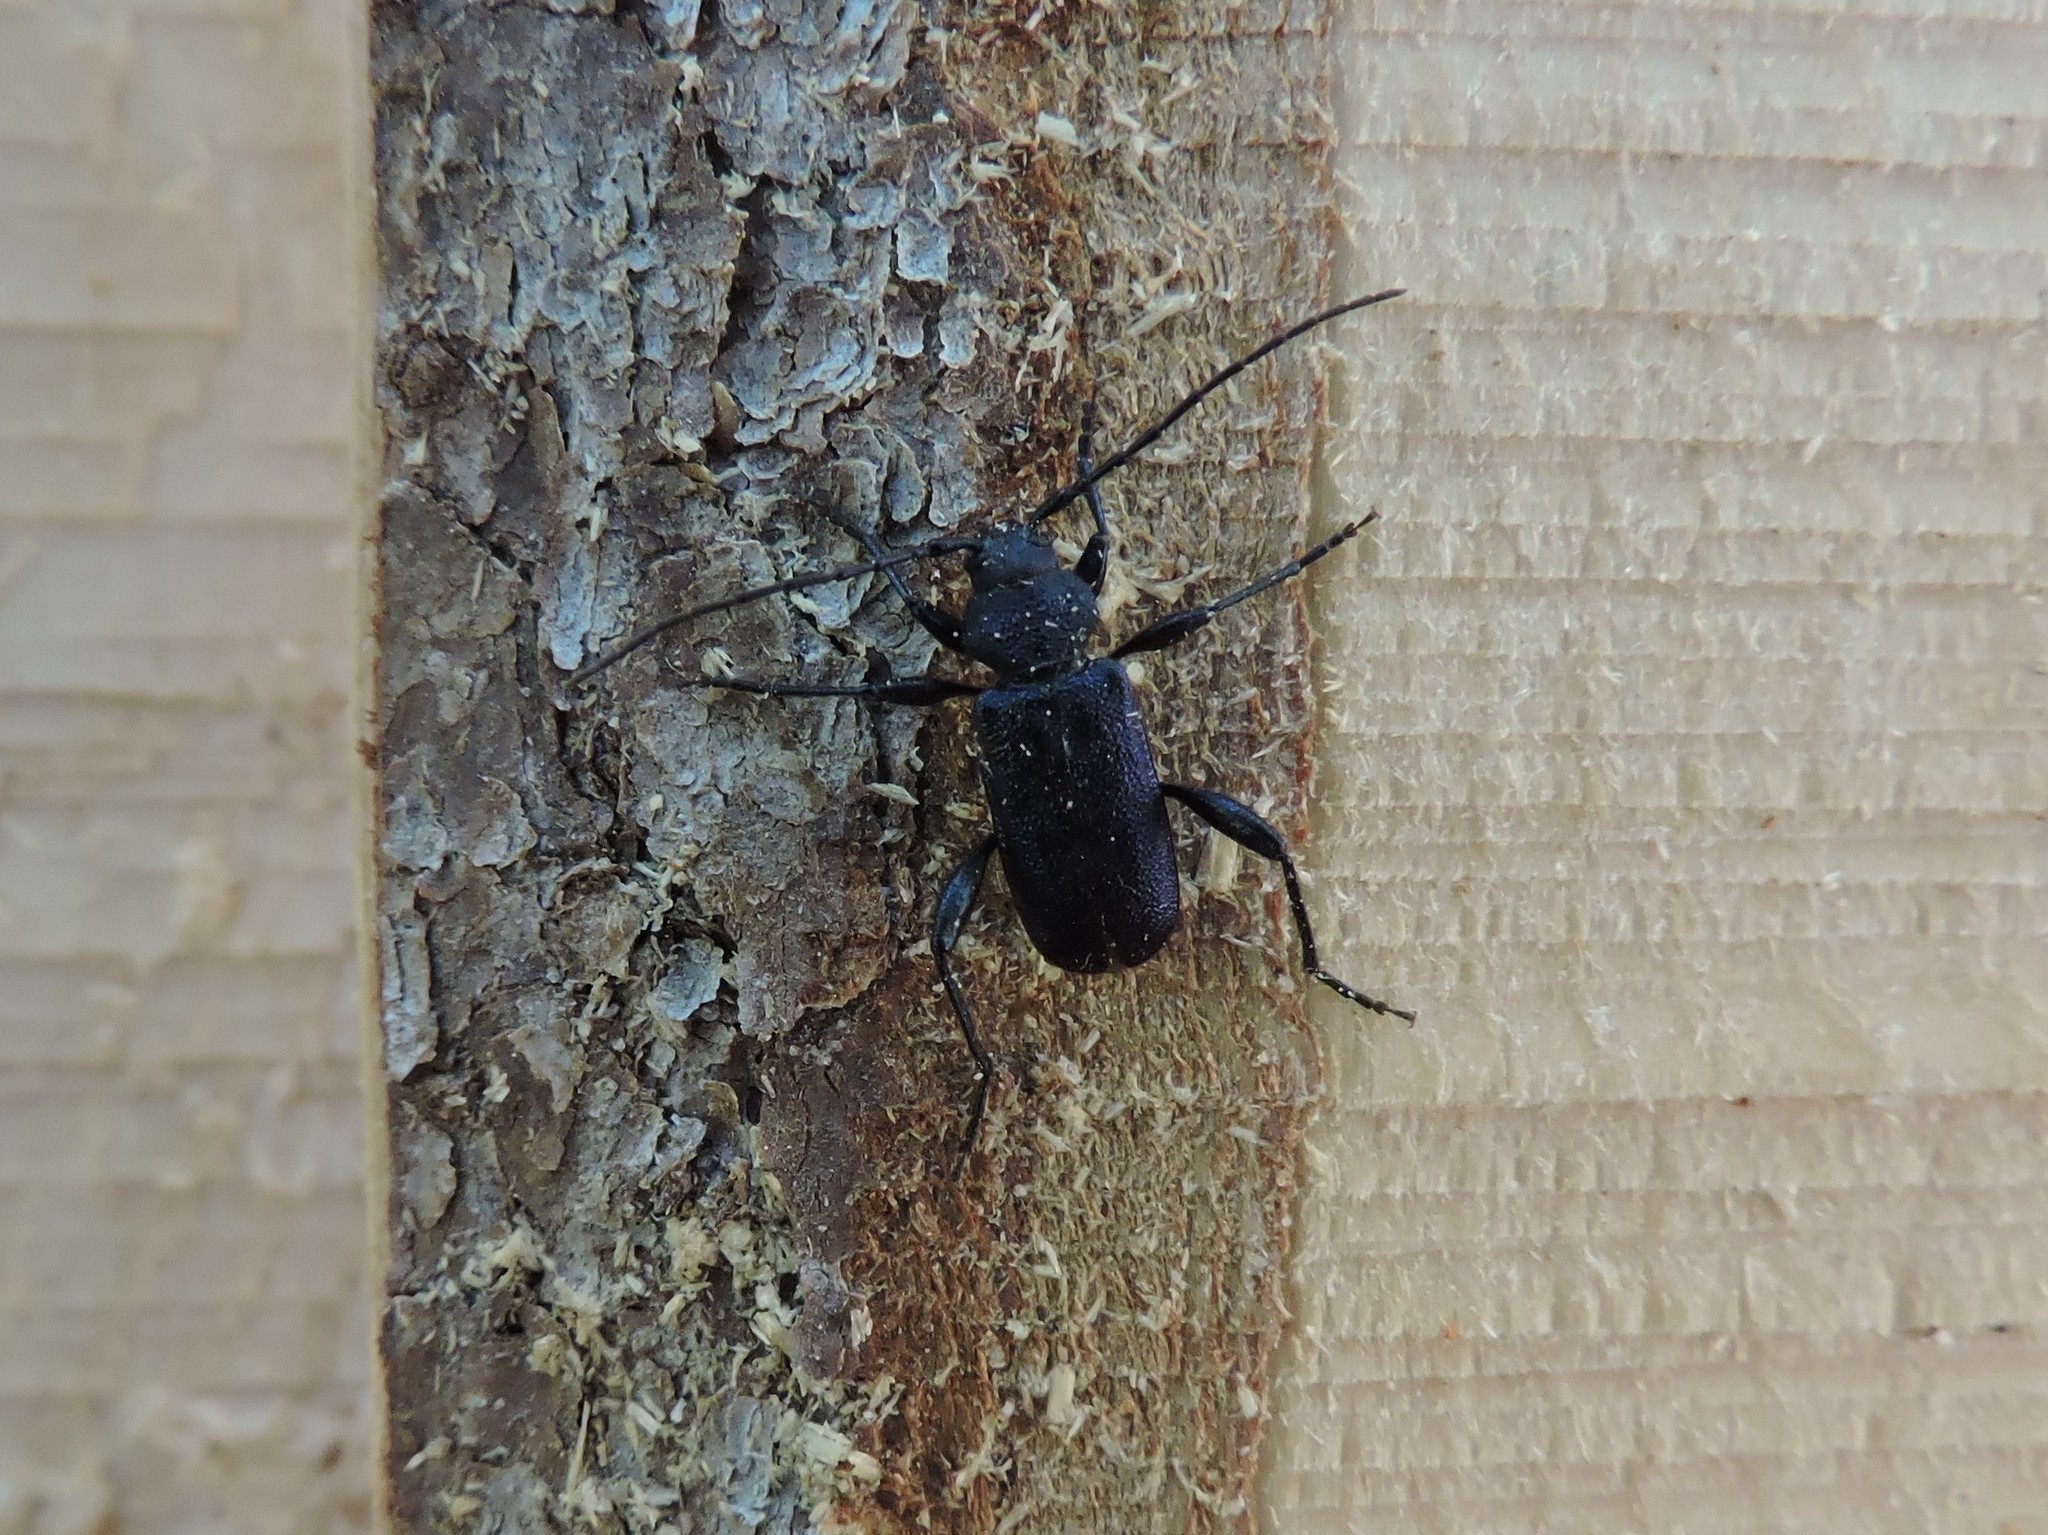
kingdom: Animalia
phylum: Arthropoda
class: Insecta
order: Coleoptera
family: Cerambycidae
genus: Callidium
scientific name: Callidium violaceum
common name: Violet tanbark beetle
